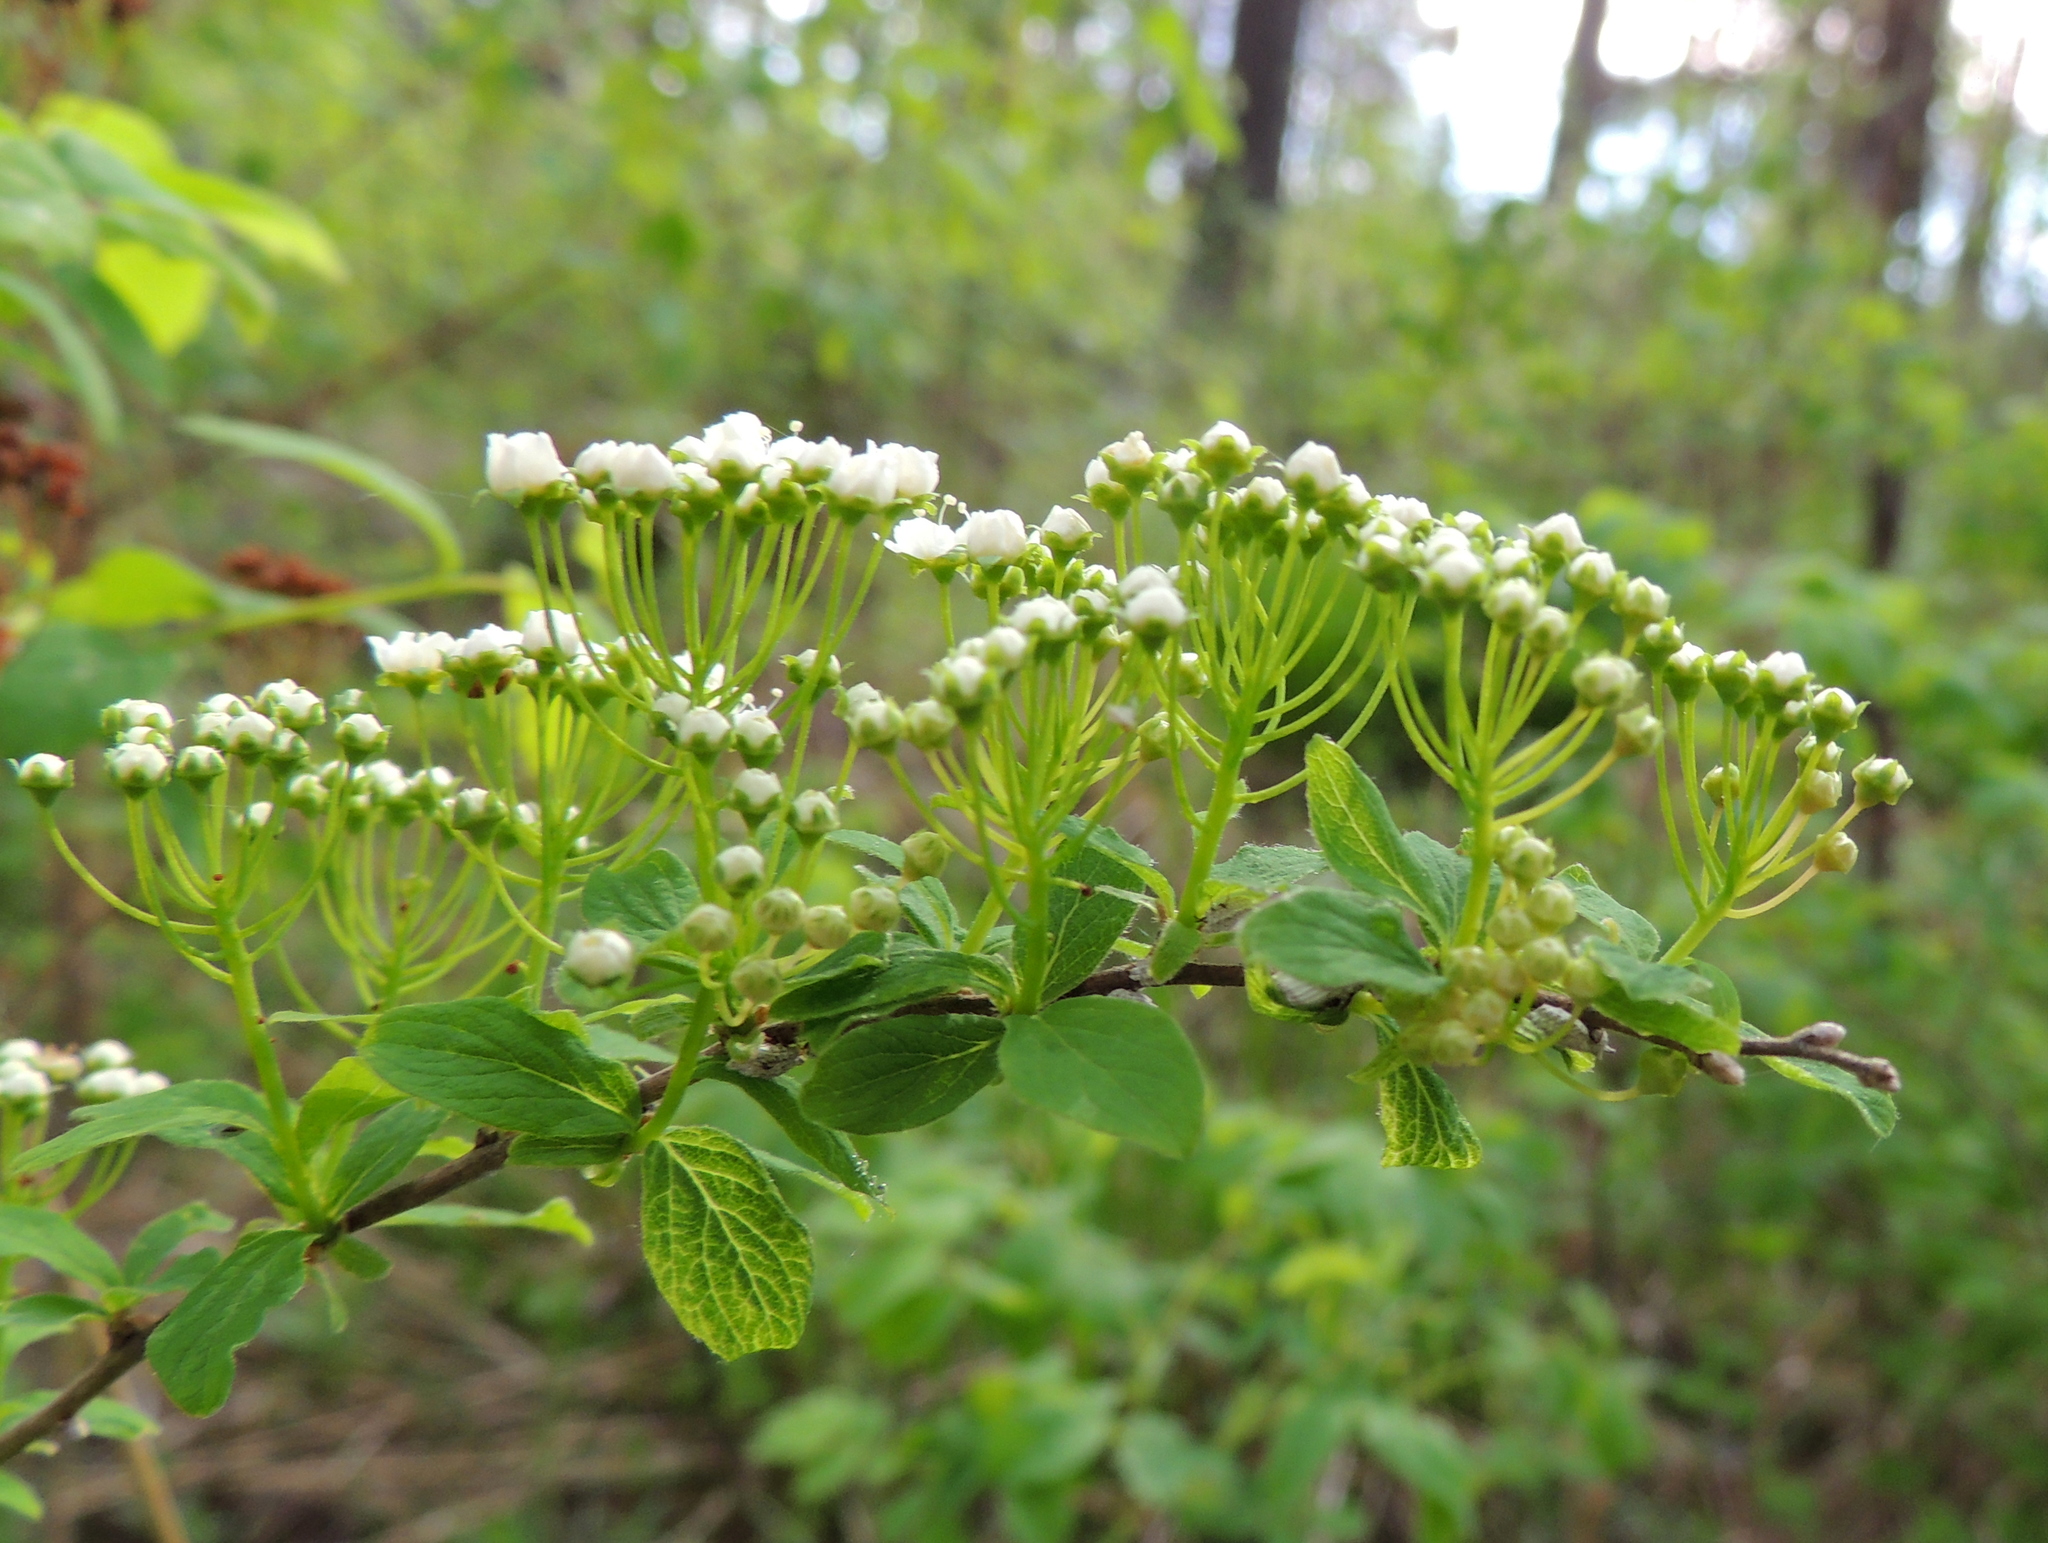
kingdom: Plantae
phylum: Tracheophyta
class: Magnoliopsida
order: Rosales
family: Rosaceae
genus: Spiraea
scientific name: Spiraea media
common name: Russian spiraea
